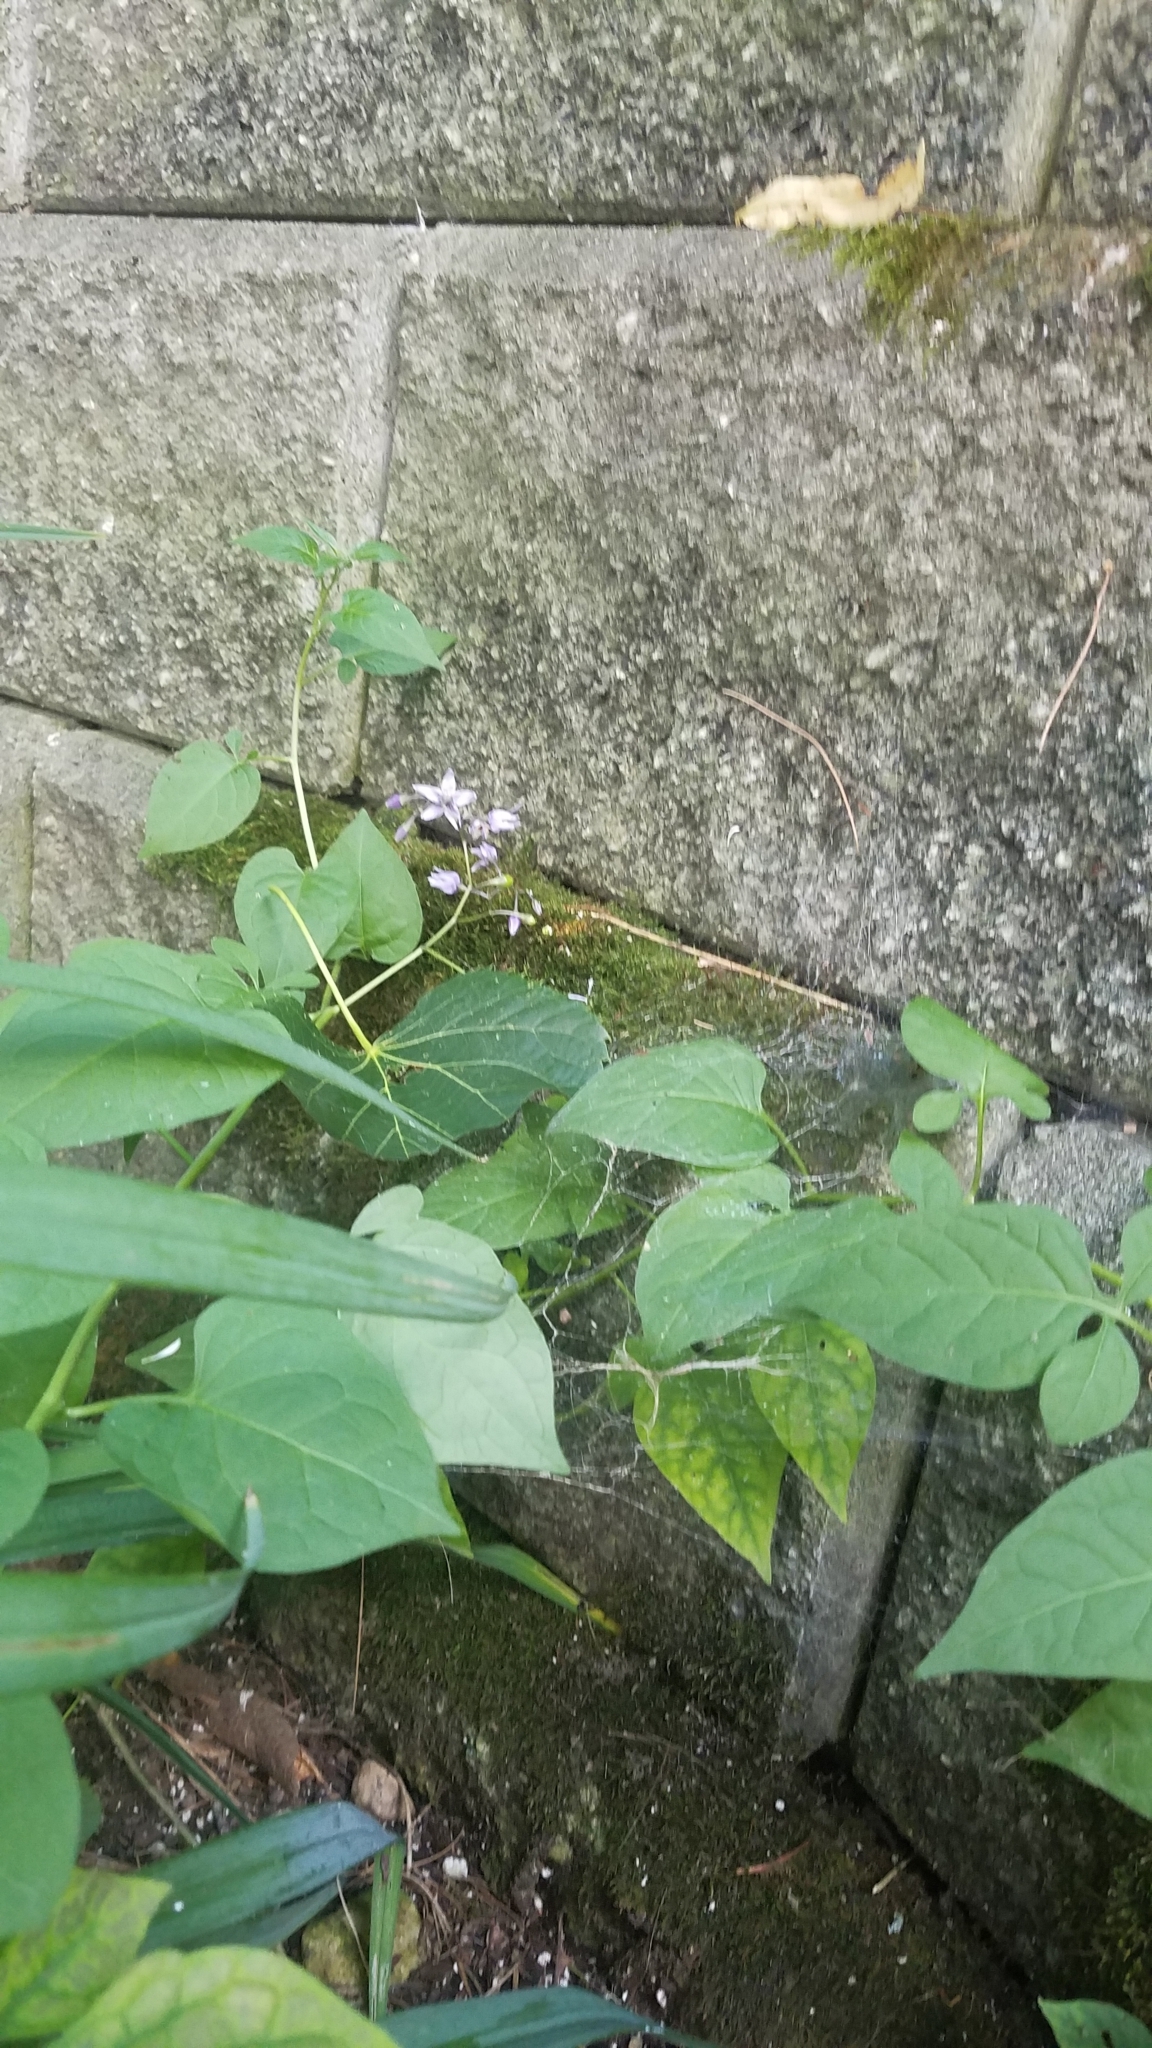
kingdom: Plantae
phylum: Tracheophyta
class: Magnoliopsida
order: Solanales
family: Solanaceae
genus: Solanum
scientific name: Solanum dulcamara
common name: Climbing nightshade
